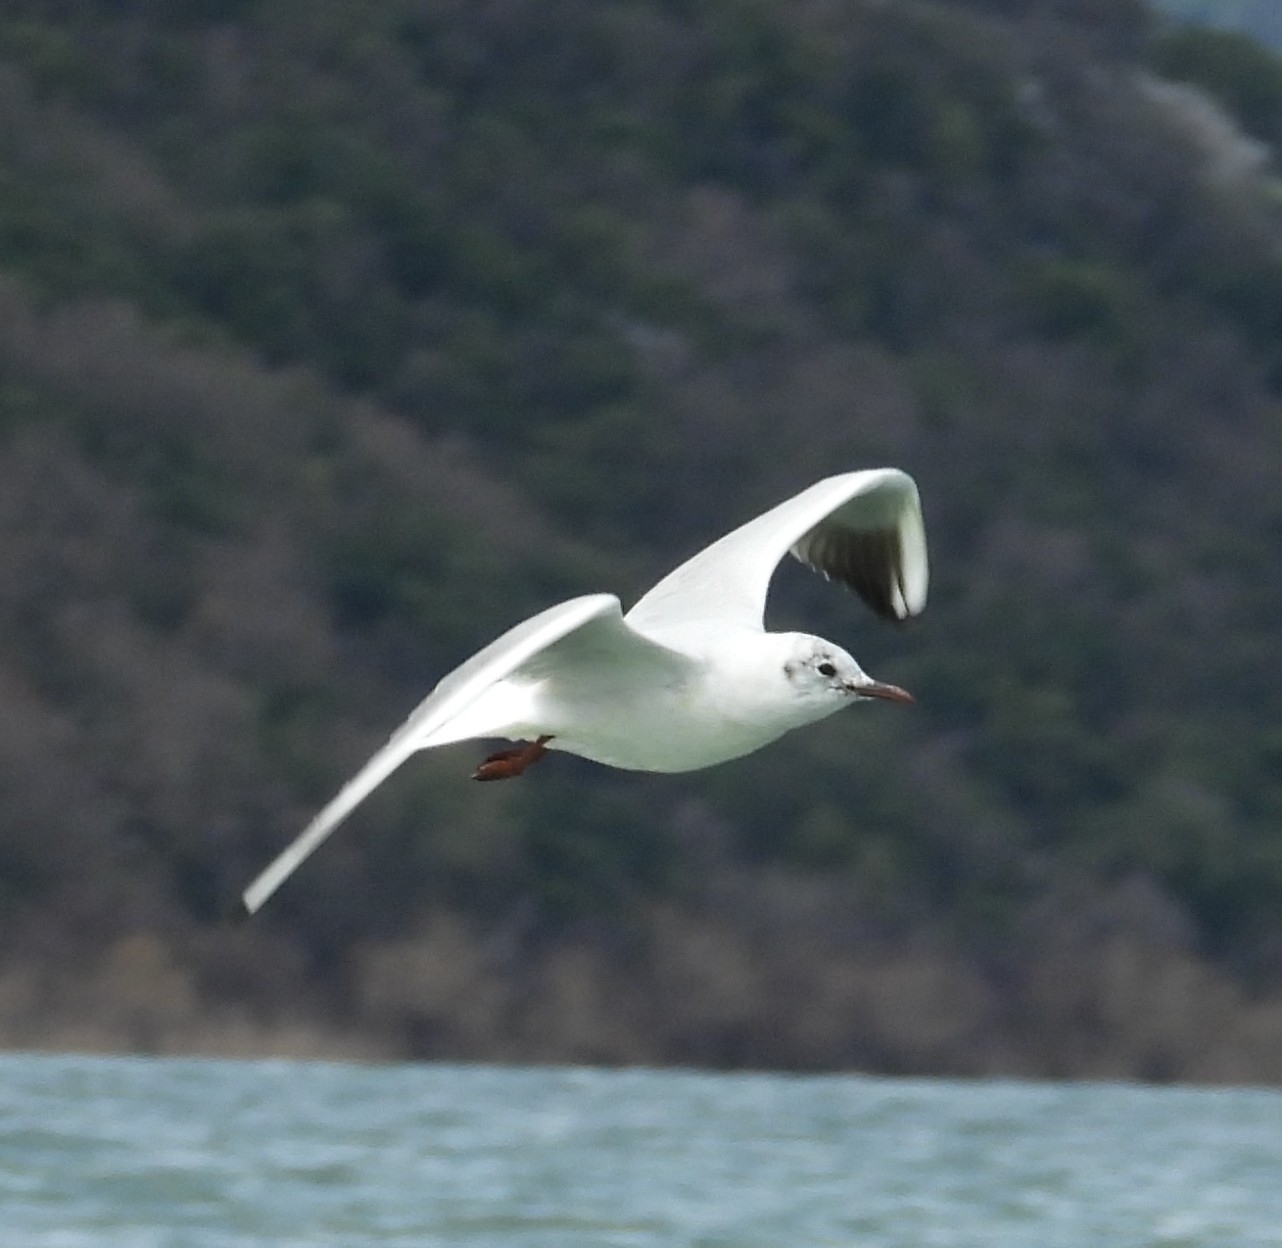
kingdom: Animalia
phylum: Chordata
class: Aves
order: Charadriiformes
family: Laridae
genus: Chroicocephalus
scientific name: Chroicocephalus ridibundus
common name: Black-headed gull
